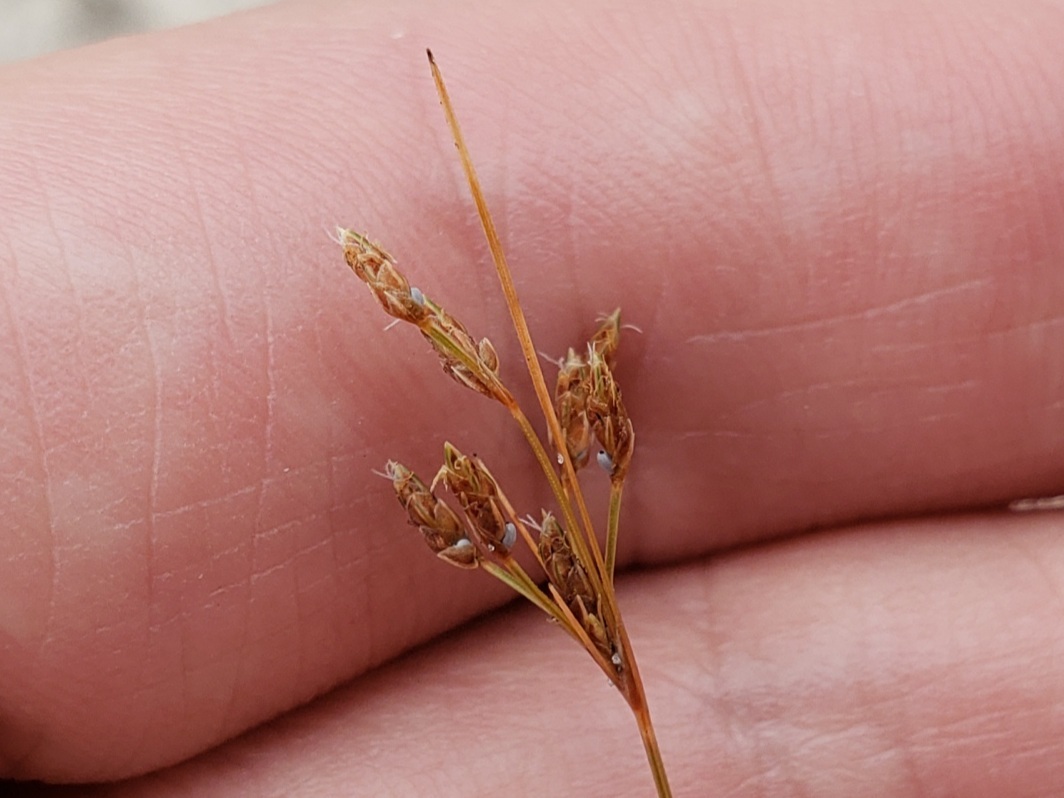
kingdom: Plantae
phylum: Tracheophyta
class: Liliopsida
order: Poales
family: Cyperaceae
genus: Bulbostylis
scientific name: Bulbostylis ciliatifolia
